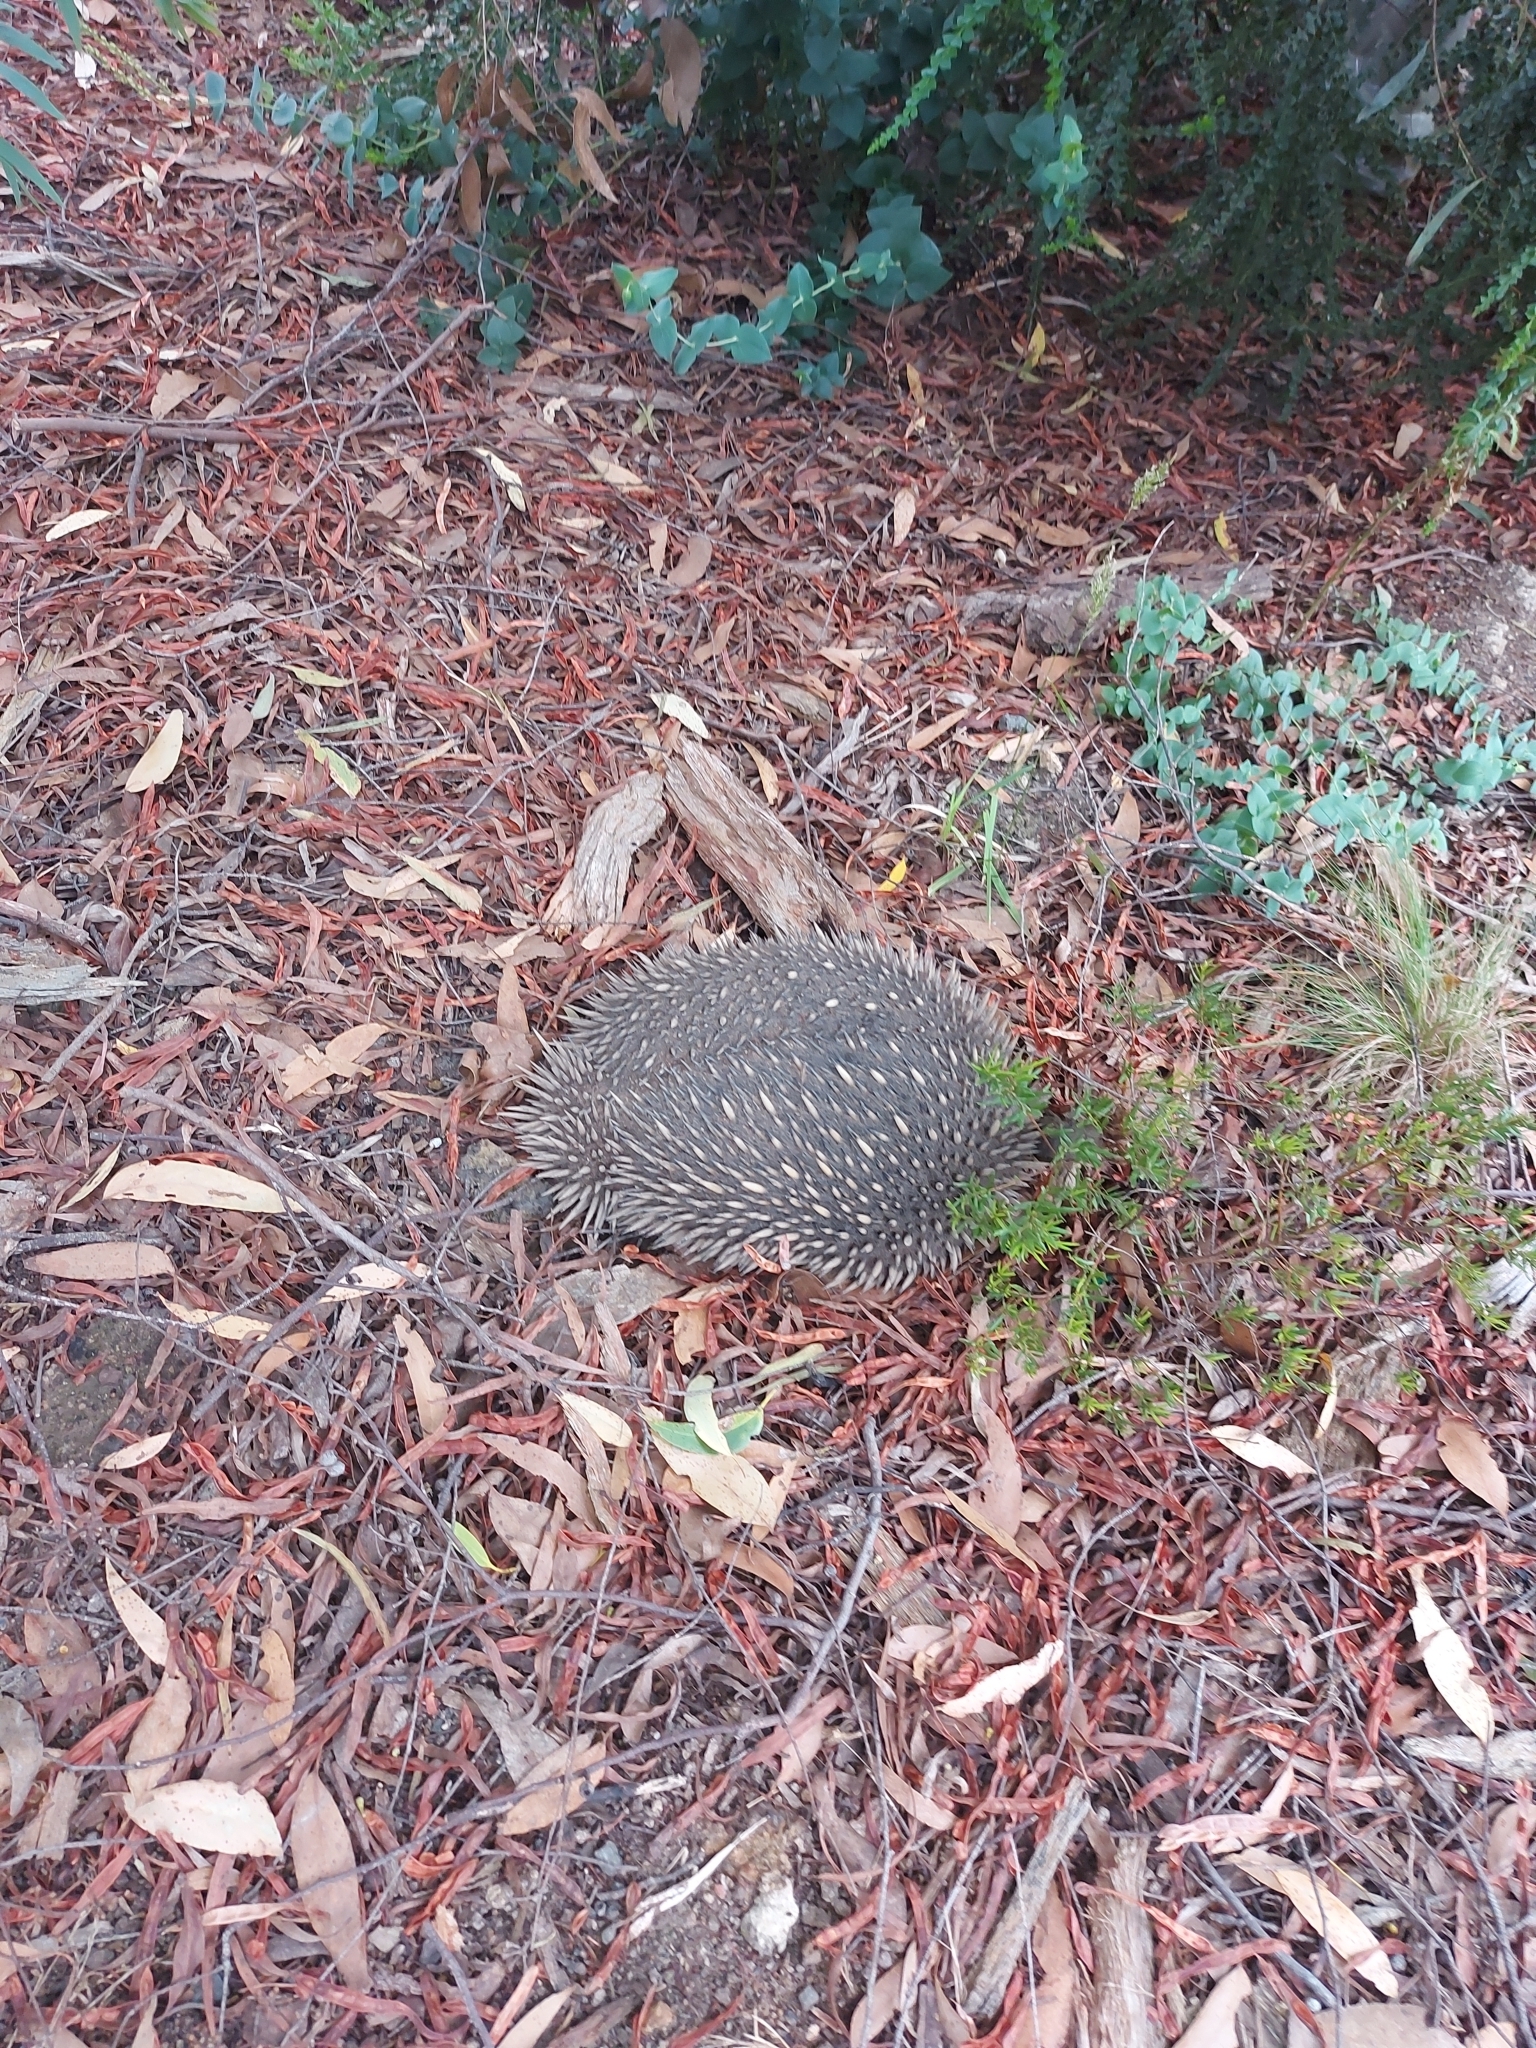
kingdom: Animalia
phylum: Chordata
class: Mammalia
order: Monotremata
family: Tachyglossidae
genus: Tachyglossus
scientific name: Tachyglossus aculeatus
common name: Short-beaked echidna
